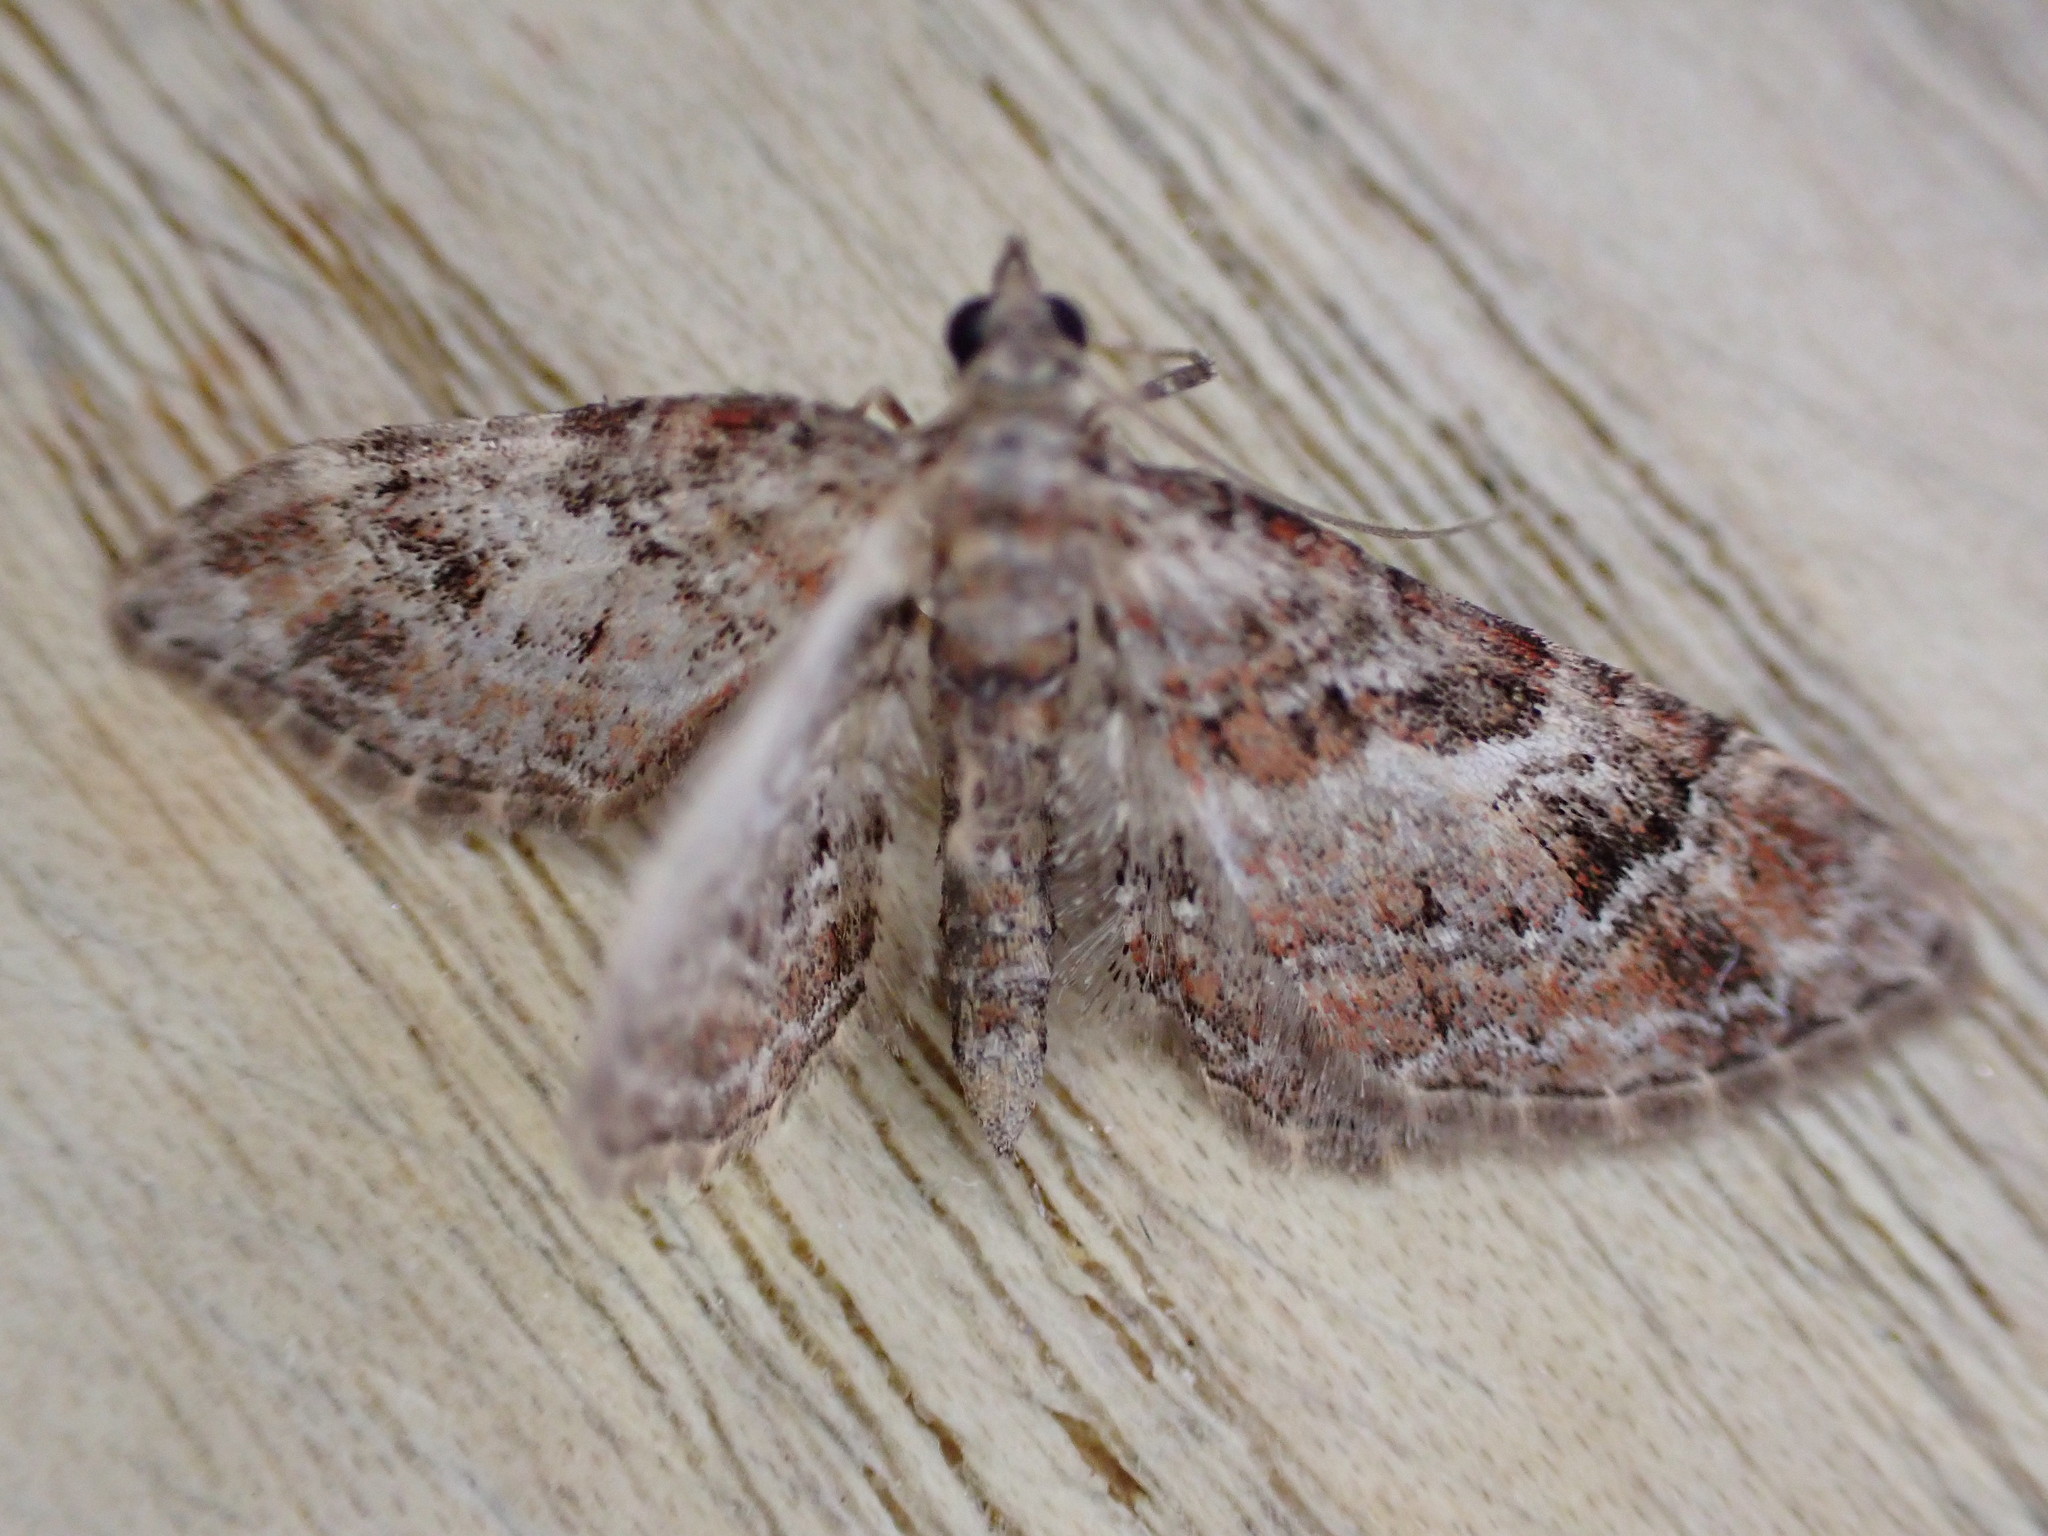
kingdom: Animalia
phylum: Arthropoda
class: Insecta
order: Lepidoptera
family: Geometridae
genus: Gymnoscelis
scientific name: Gymnoscelis rufifasciata
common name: Double-striped pug
